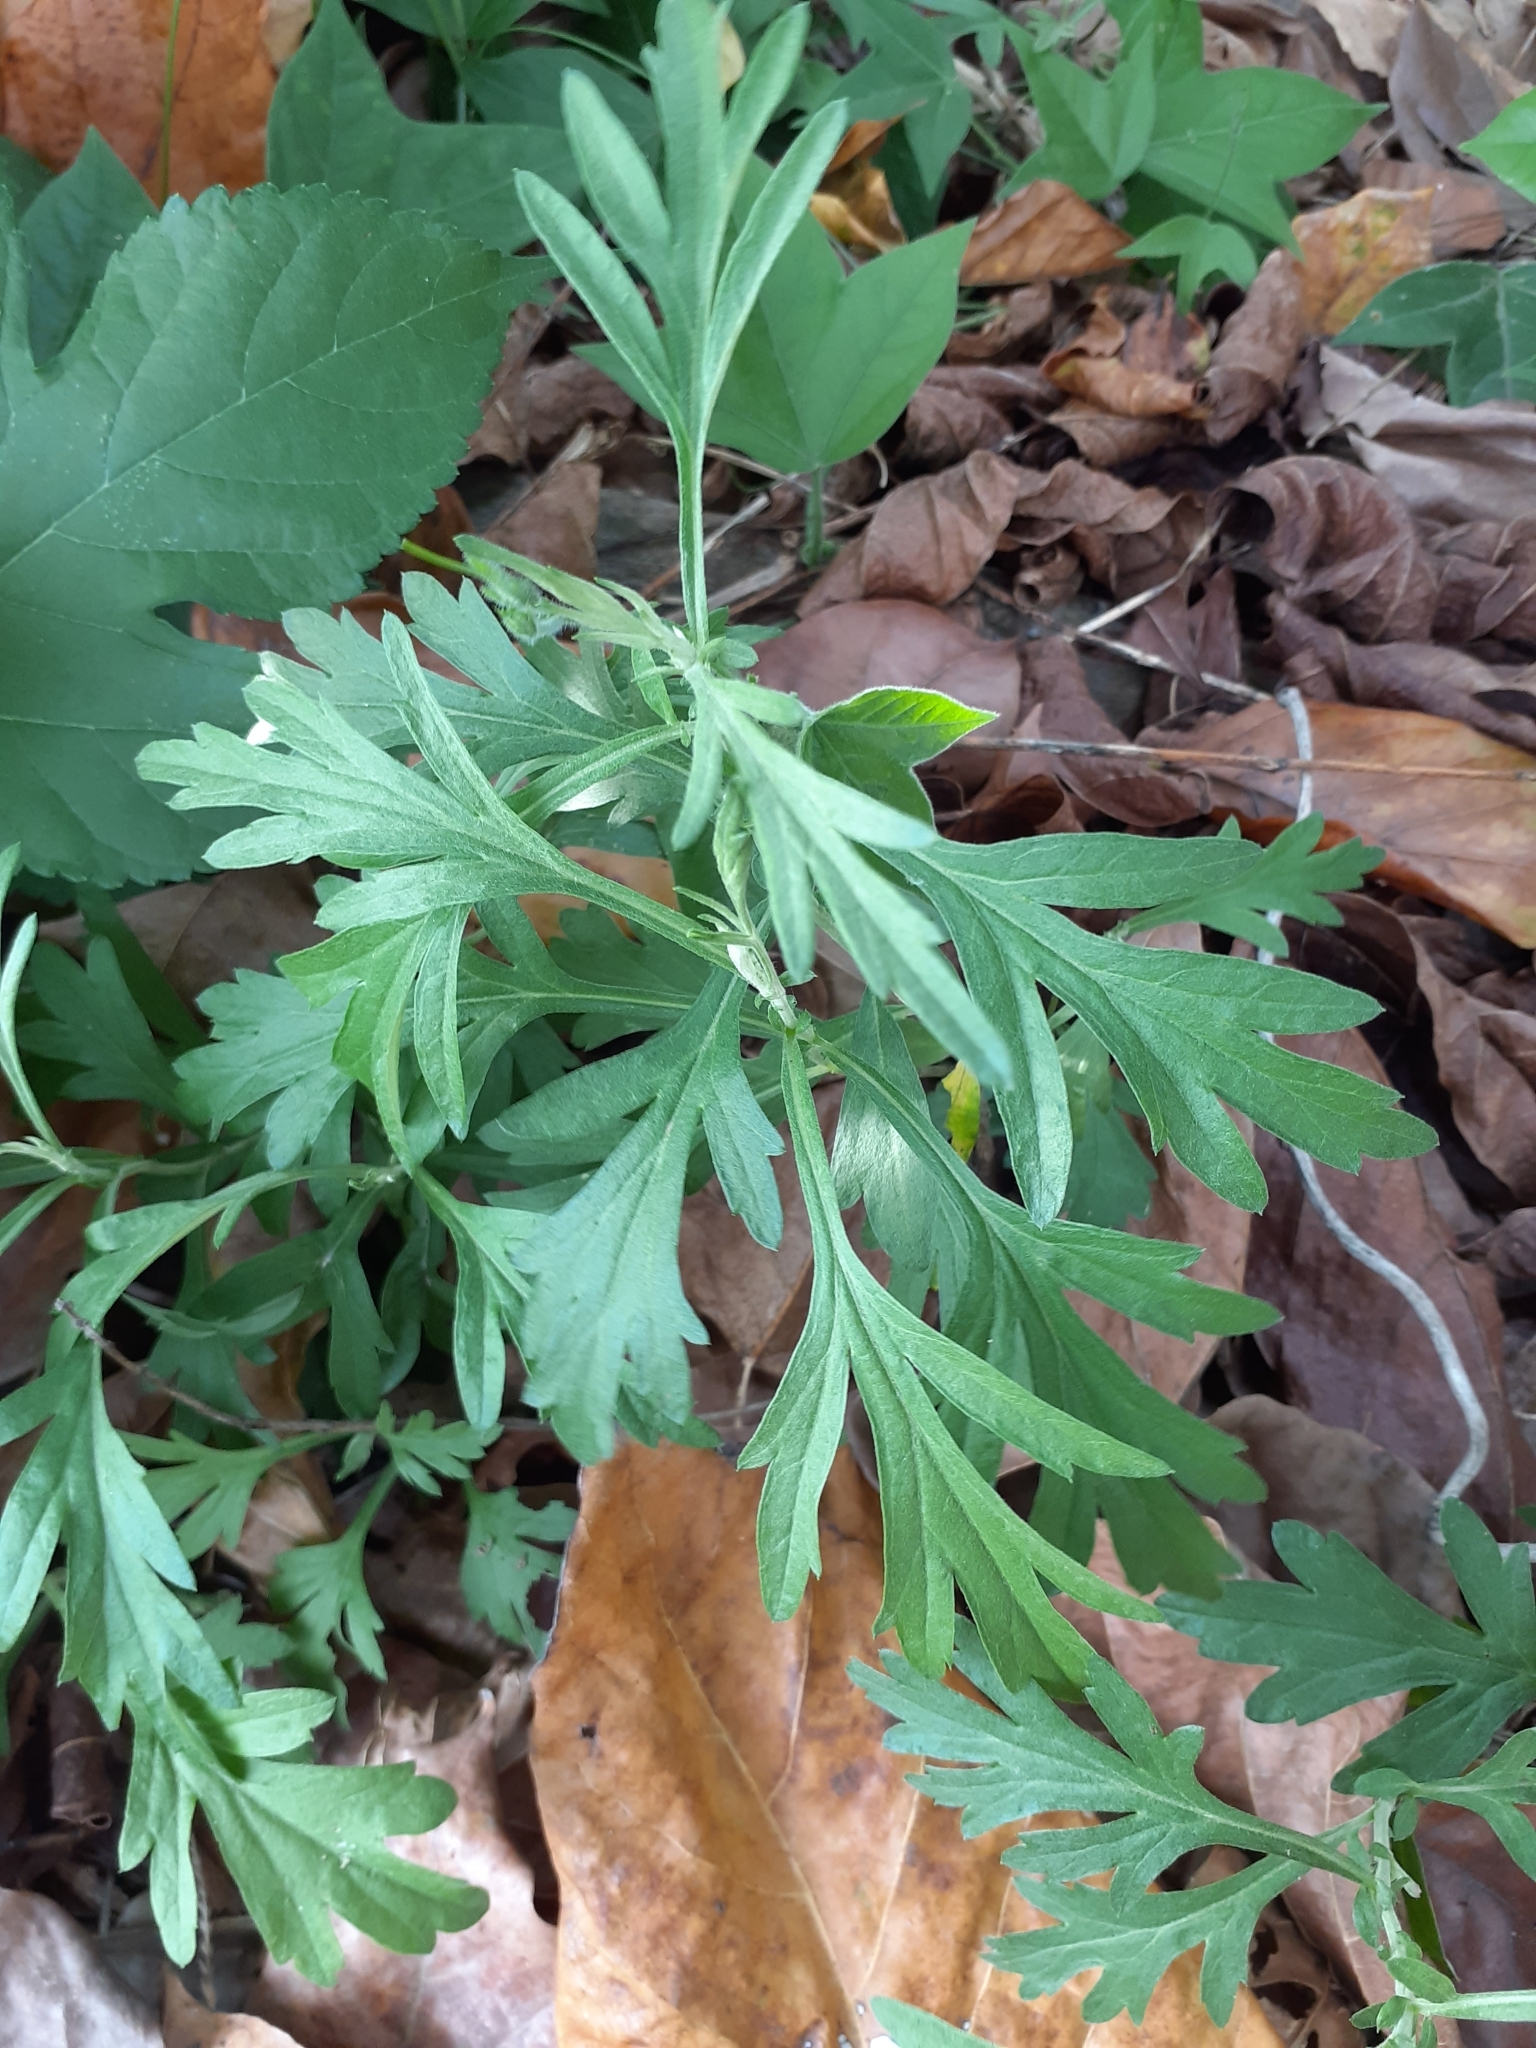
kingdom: Plantae
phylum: Tracheophyta
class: Magnoliopsida
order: Asterales
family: Asteraceae
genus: Artemisia
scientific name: Artemisia indica
